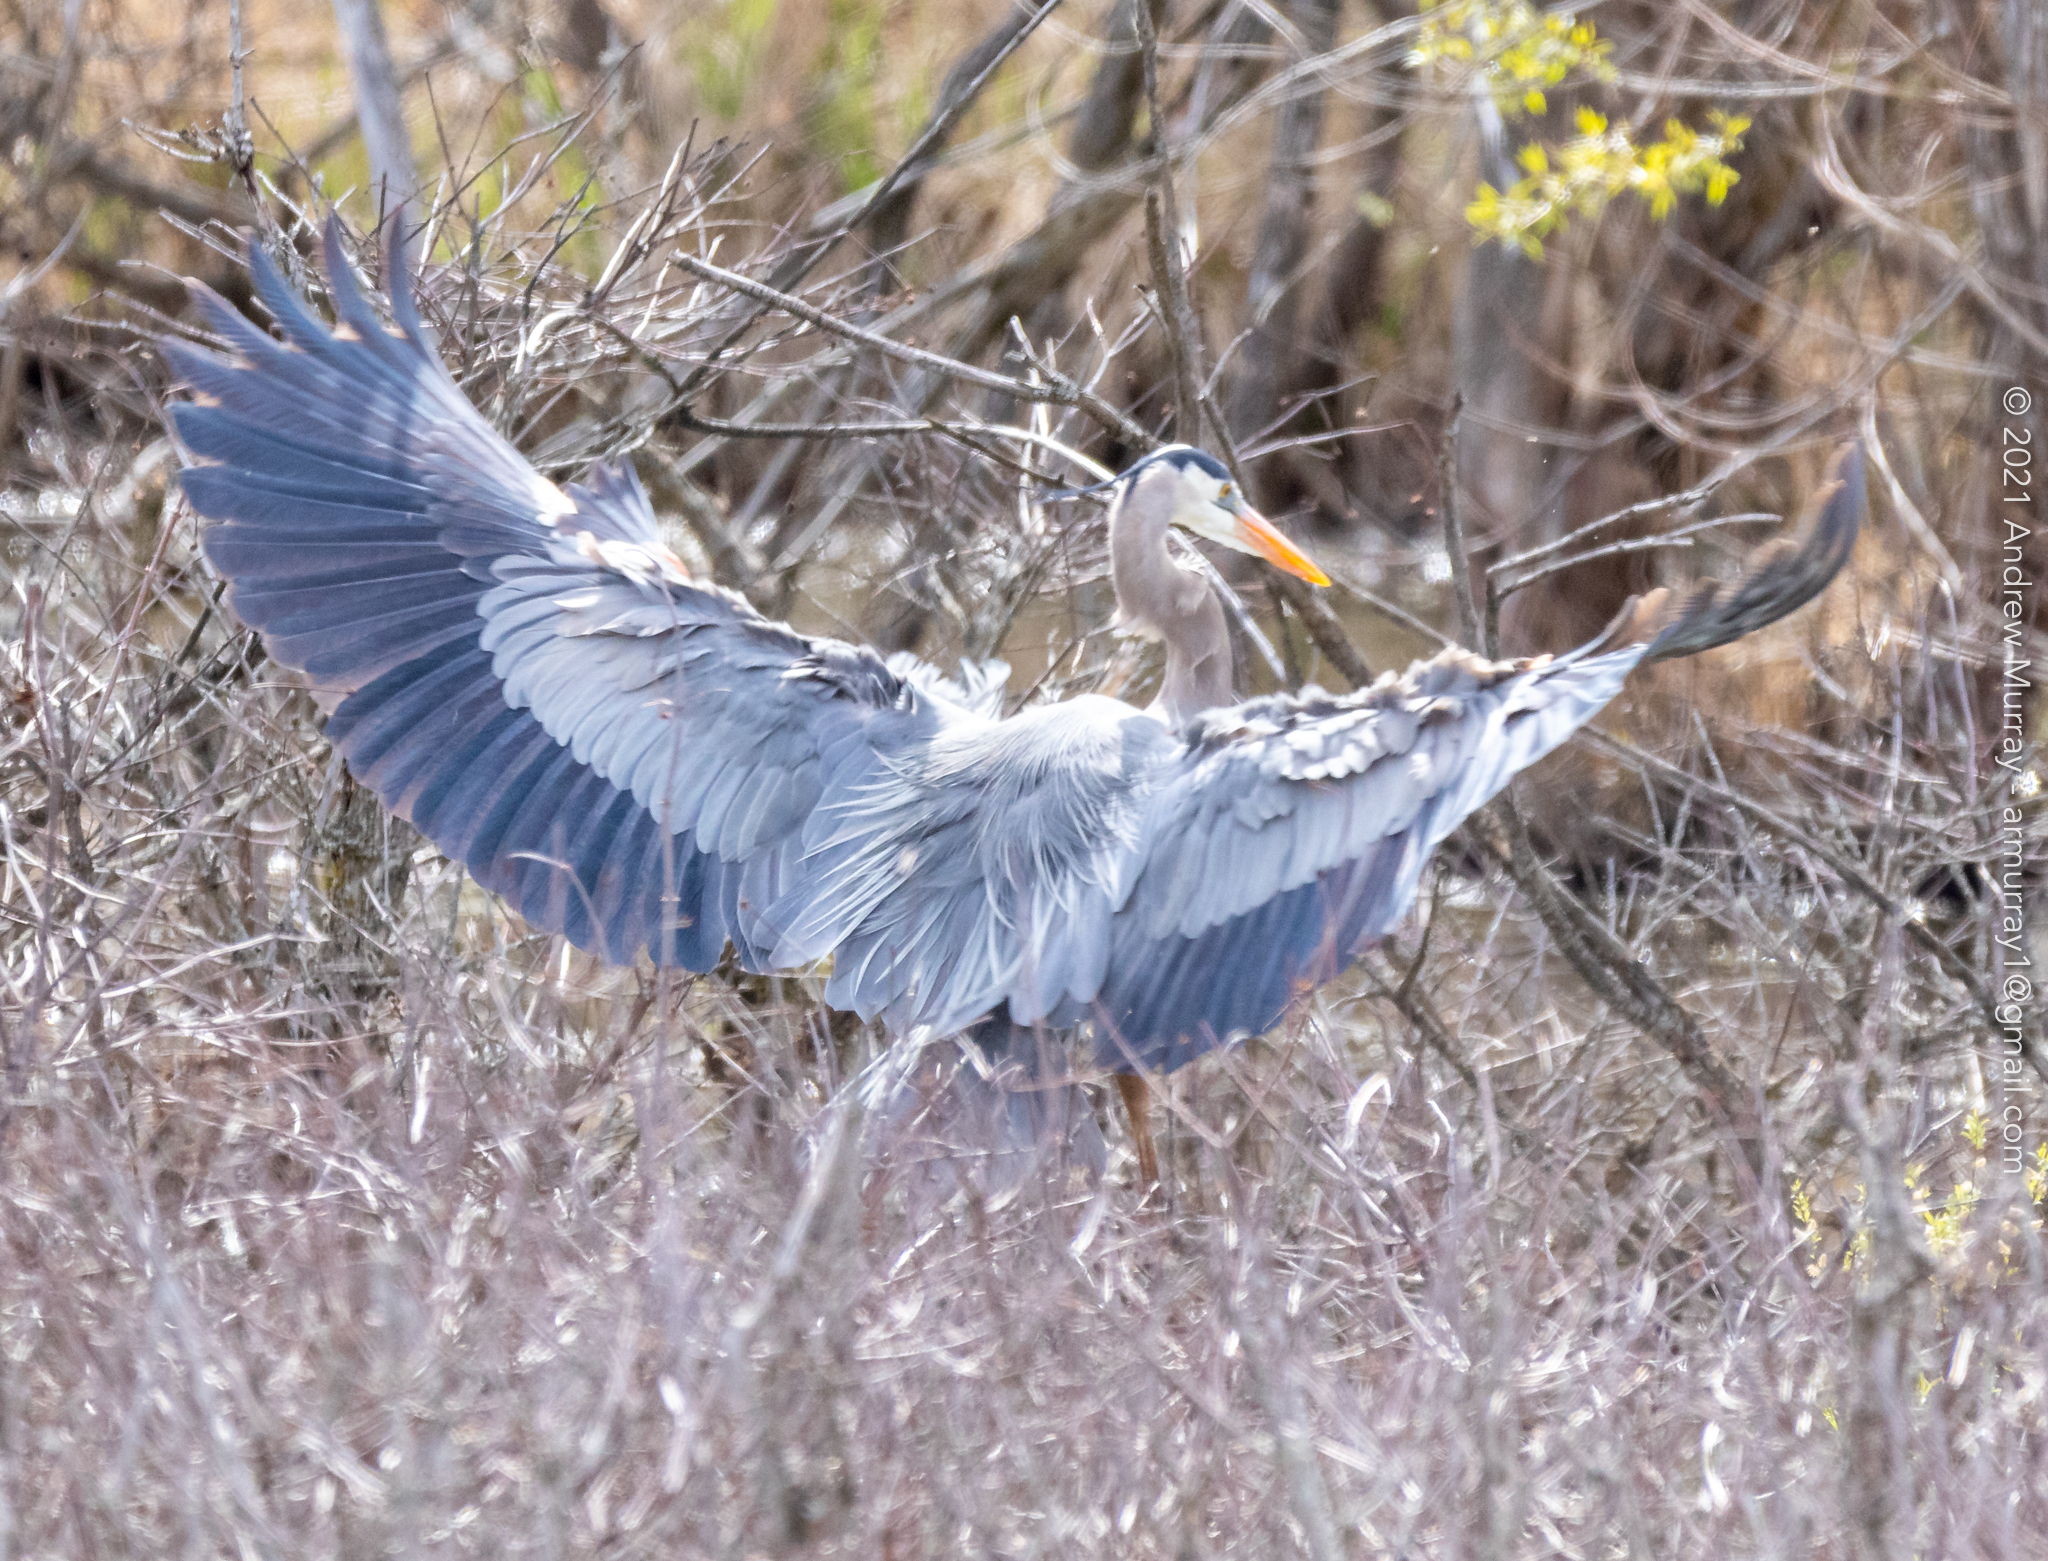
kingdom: Animalia
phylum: Chordata
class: Aves
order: Pelecaniformes
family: Ardeidae
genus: Ardea
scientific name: Ardea herodias
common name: Great blue heron
